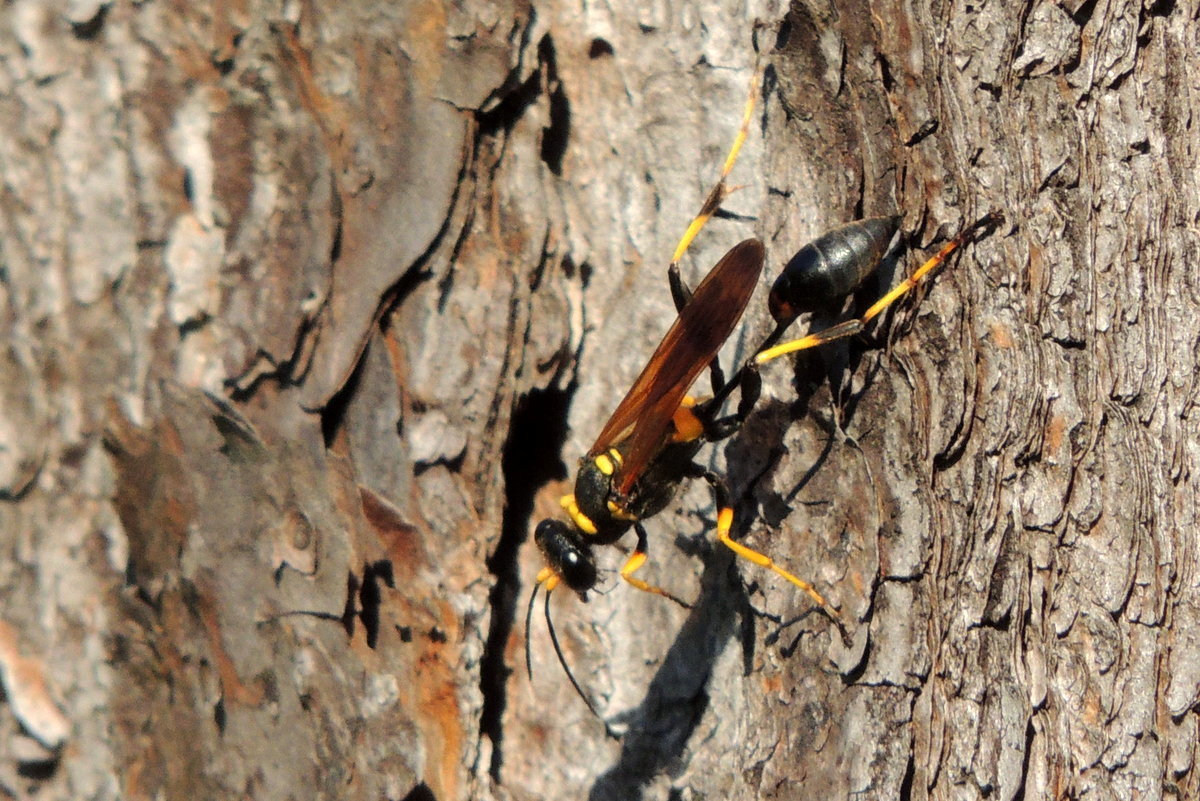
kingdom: Animalia
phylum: Arthropoda
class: Insecta
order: Hymenoptera
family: Sphecidae
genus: Sceliphron
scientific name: Sceliphron caementarium
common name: Mud dauber
